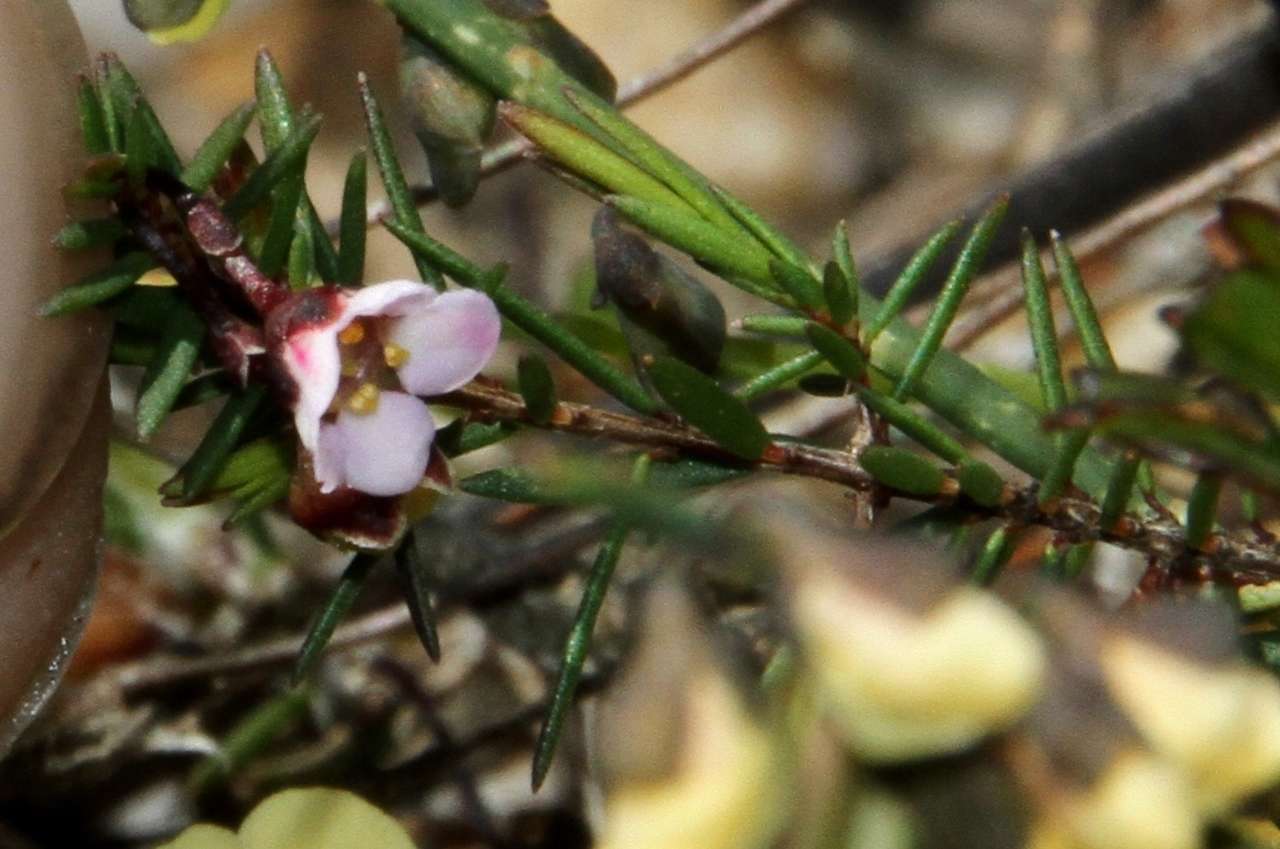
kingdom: Plantae
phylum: Tracheophyta
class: Magnoliopsida
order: Myrtales
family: Myrtaceae
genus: Euryomyrtus
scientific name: Euryomyrtus ramosissima
